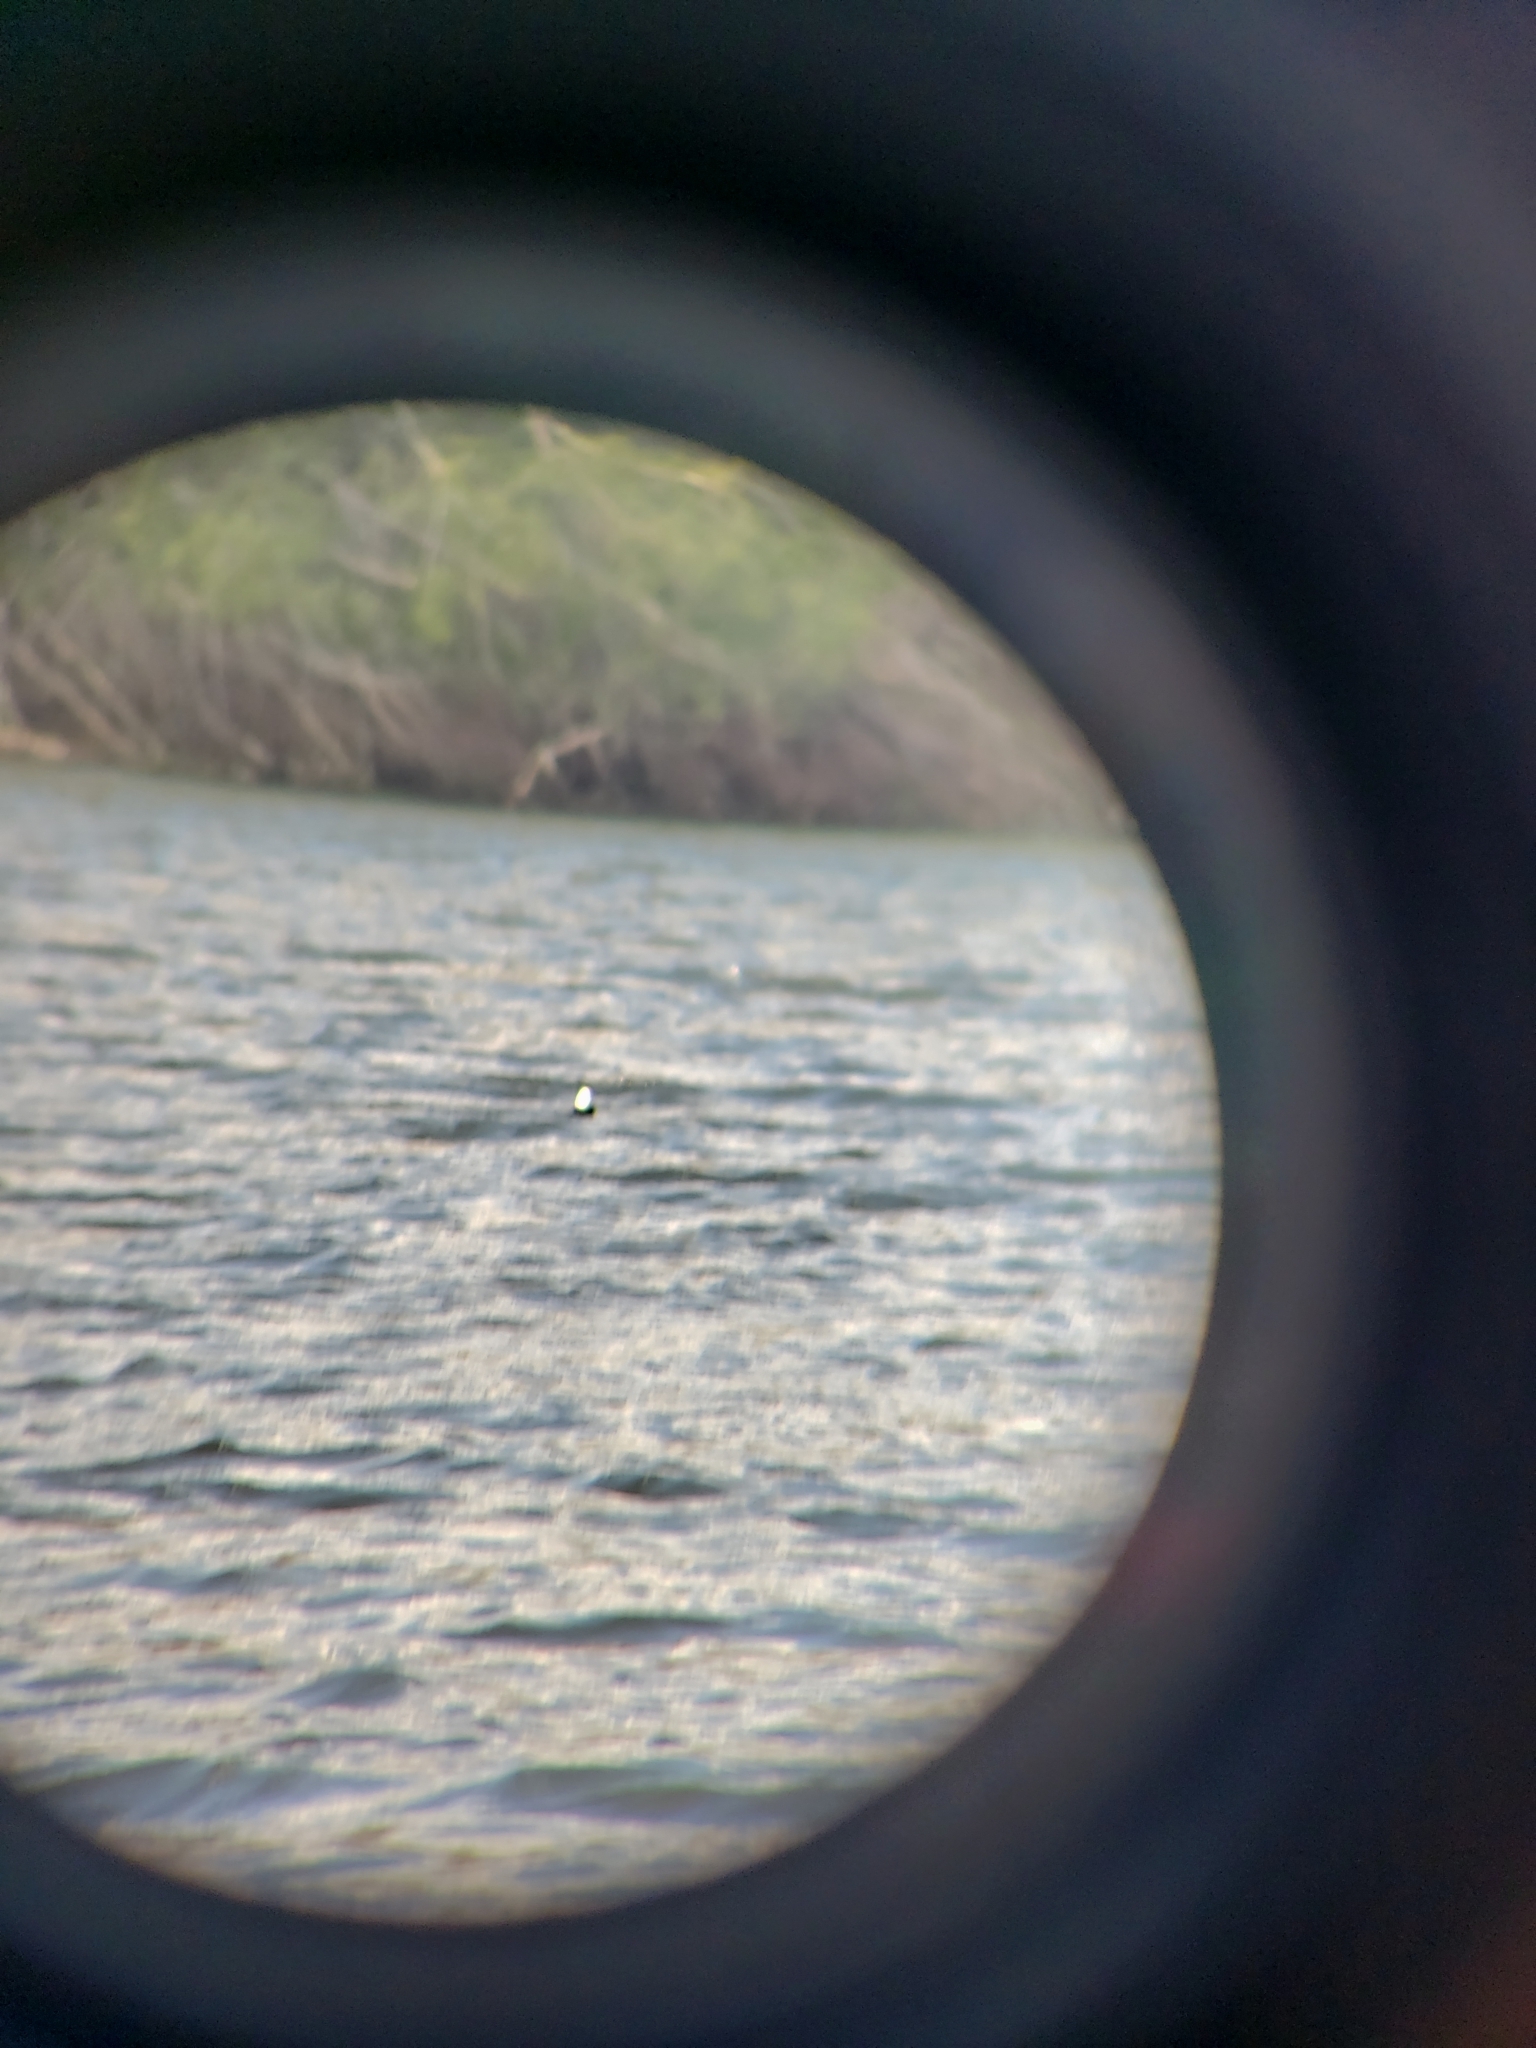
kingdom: Animalia
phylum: Chordata
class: Aves
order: Anseriformes
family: Anatidae
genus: Bucephala
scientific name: Bucephala albeola
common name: Bufflehead
